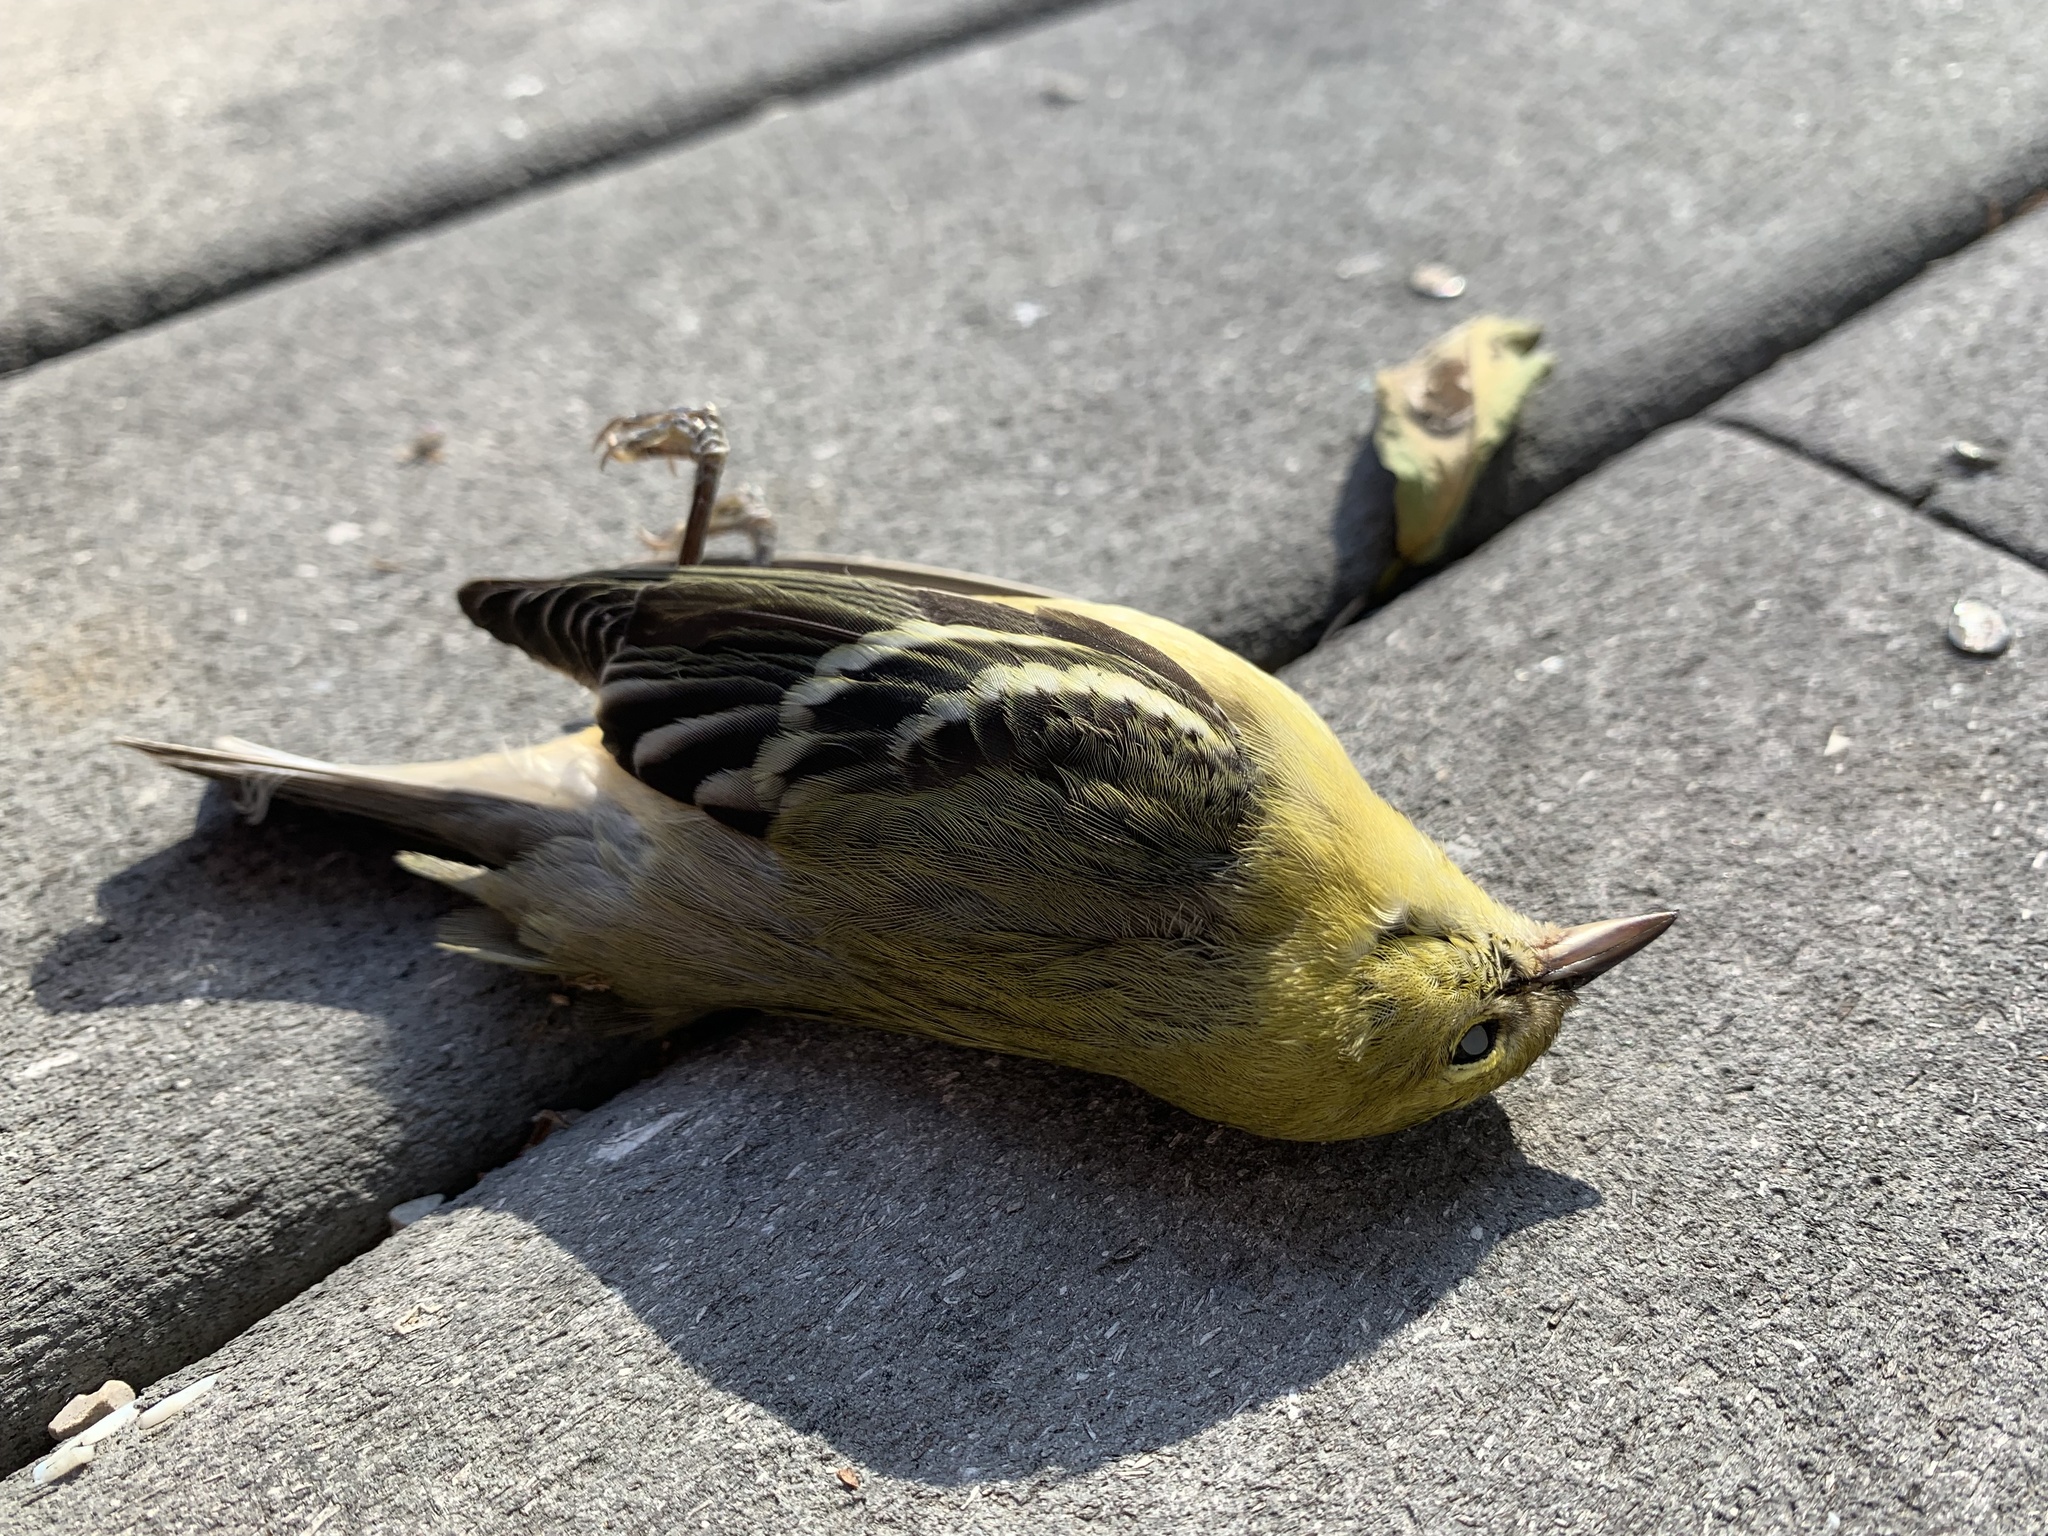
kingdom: Animalia
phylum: Chordata
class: Aves
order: Passeriformes
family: Parulidae
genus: Setophaga
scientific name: Setophaga castanea
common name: Bay-breasted warbler
